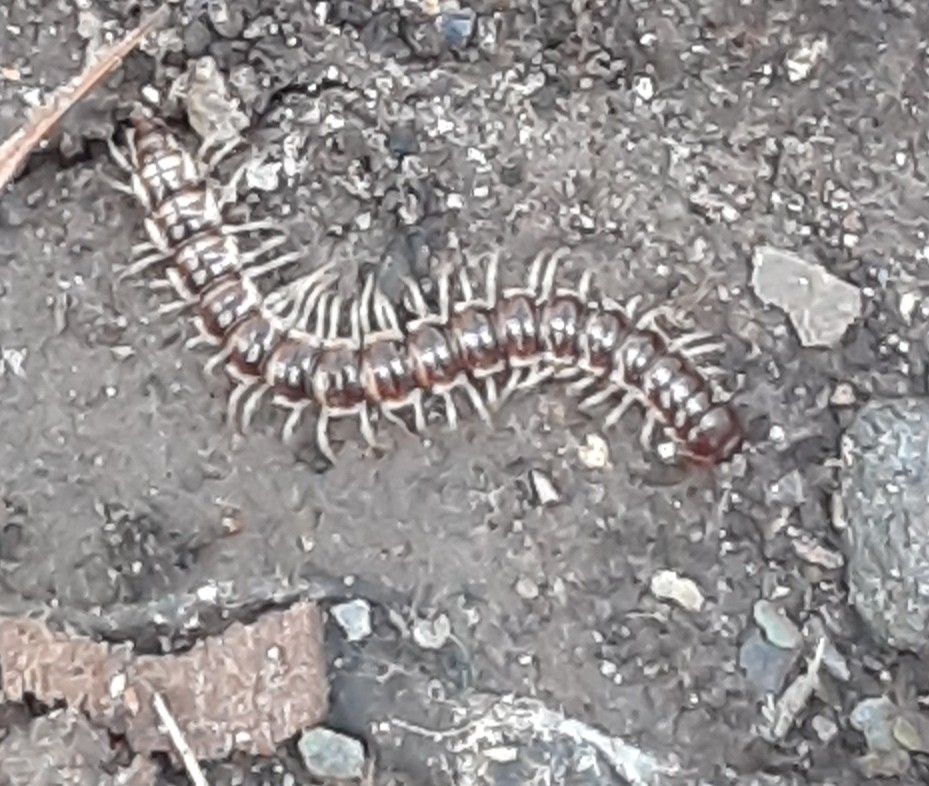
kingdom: Animalia
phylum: Arthropoda
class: Diplopoda
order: Polydesmida
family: Paradoxosomatidae
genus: Oxidus
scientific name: Oxidus gracilis
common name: Greenhouse millipede
